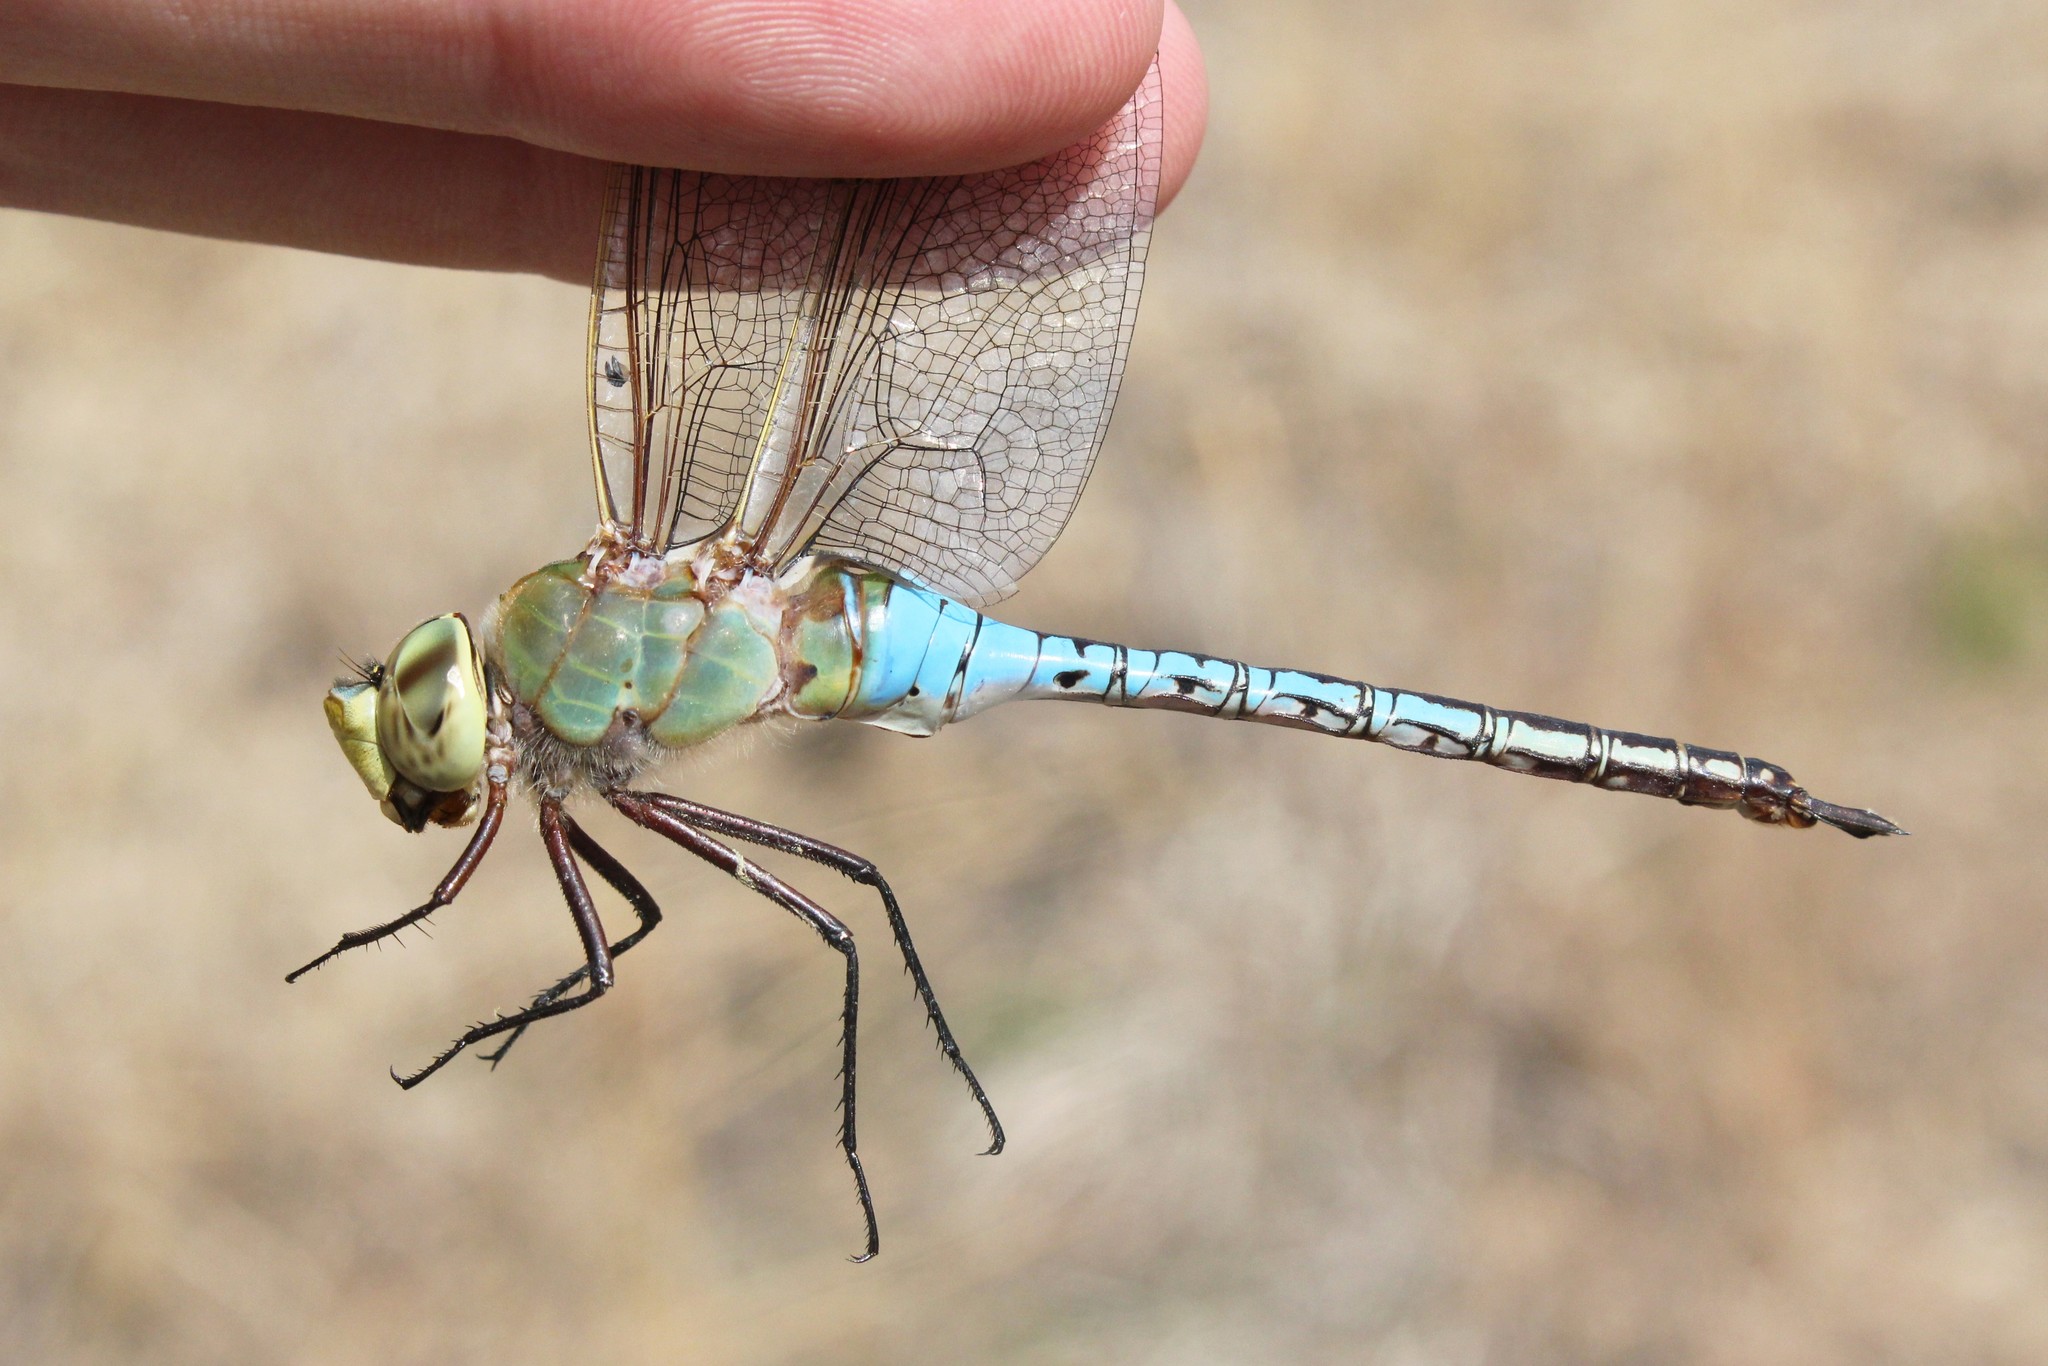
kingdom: Animalia
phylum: Arthropoda
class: Insecta
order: Odonata
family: Aeshnidae
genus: Anax
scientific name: Anax junius
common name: Common green darner
